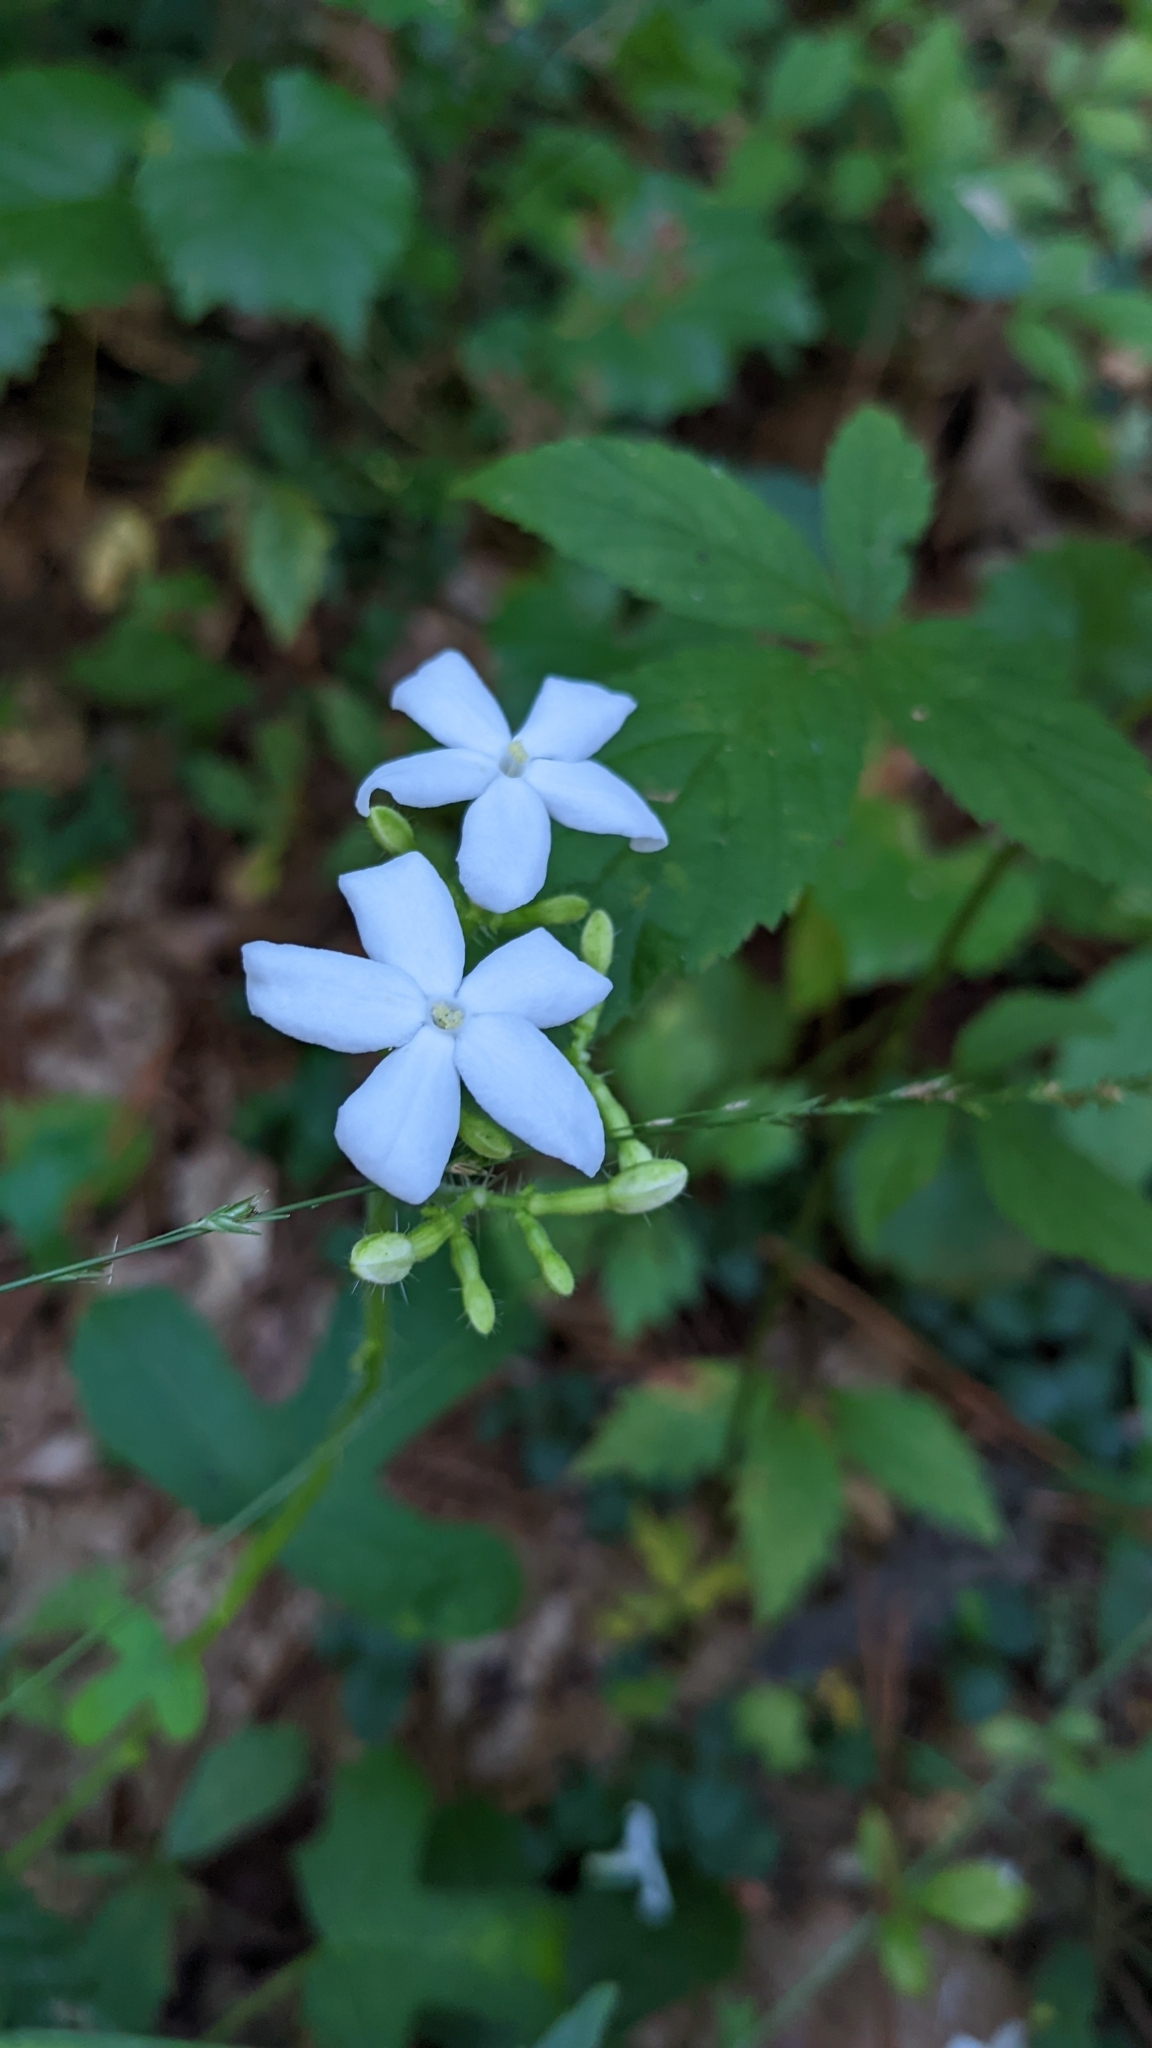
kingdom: Plantae
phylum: Tracheophyta
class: Magnoliopsida
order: Malpighiales
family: Euphorbiaceae
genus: Cnidoscolus
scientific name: Cnidoscolus stimulosus
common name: Bull-nettle
